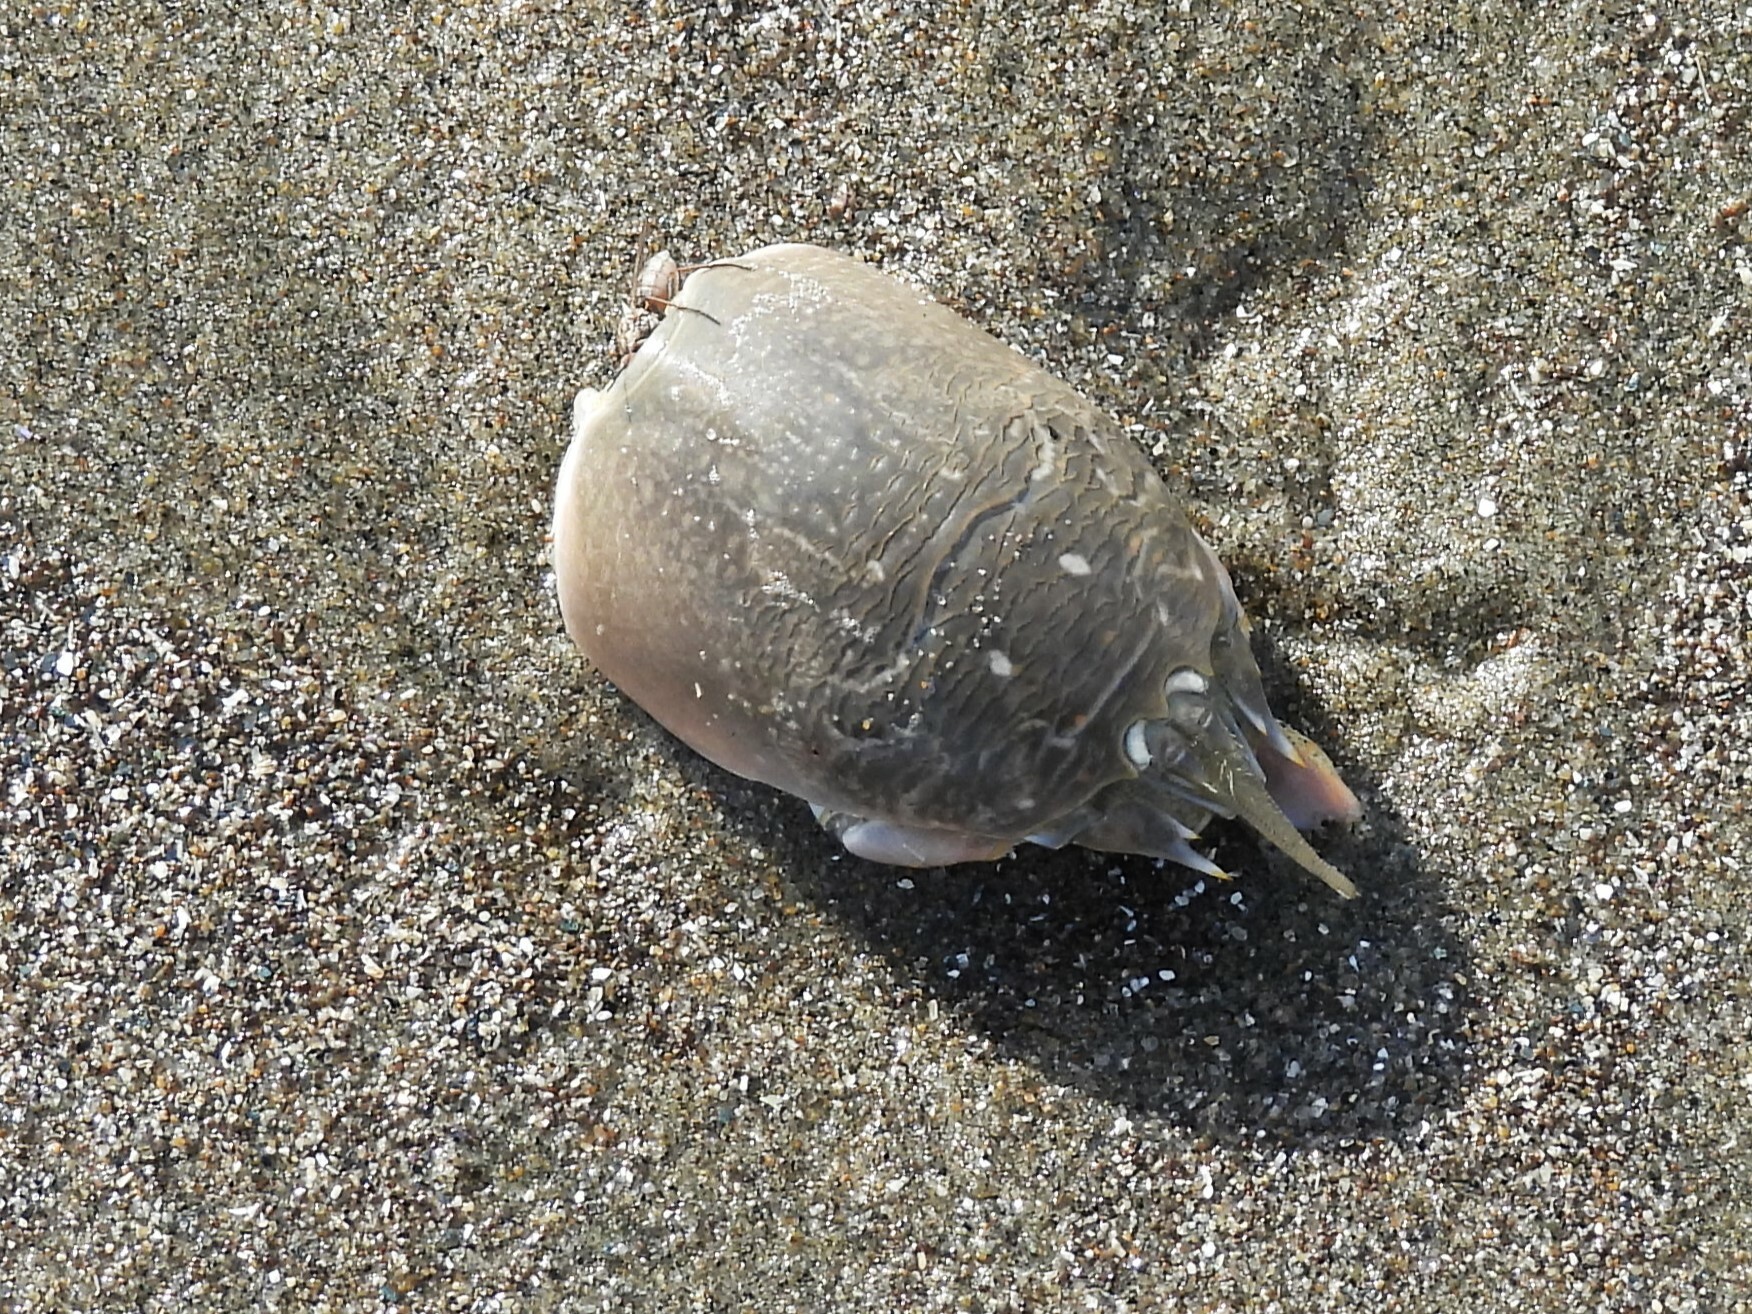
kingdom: Animalia
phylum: Arthropoda
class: Malacostraca
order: Decapoda
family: Hippidae
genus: Emerita
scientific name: Emerita analoga
